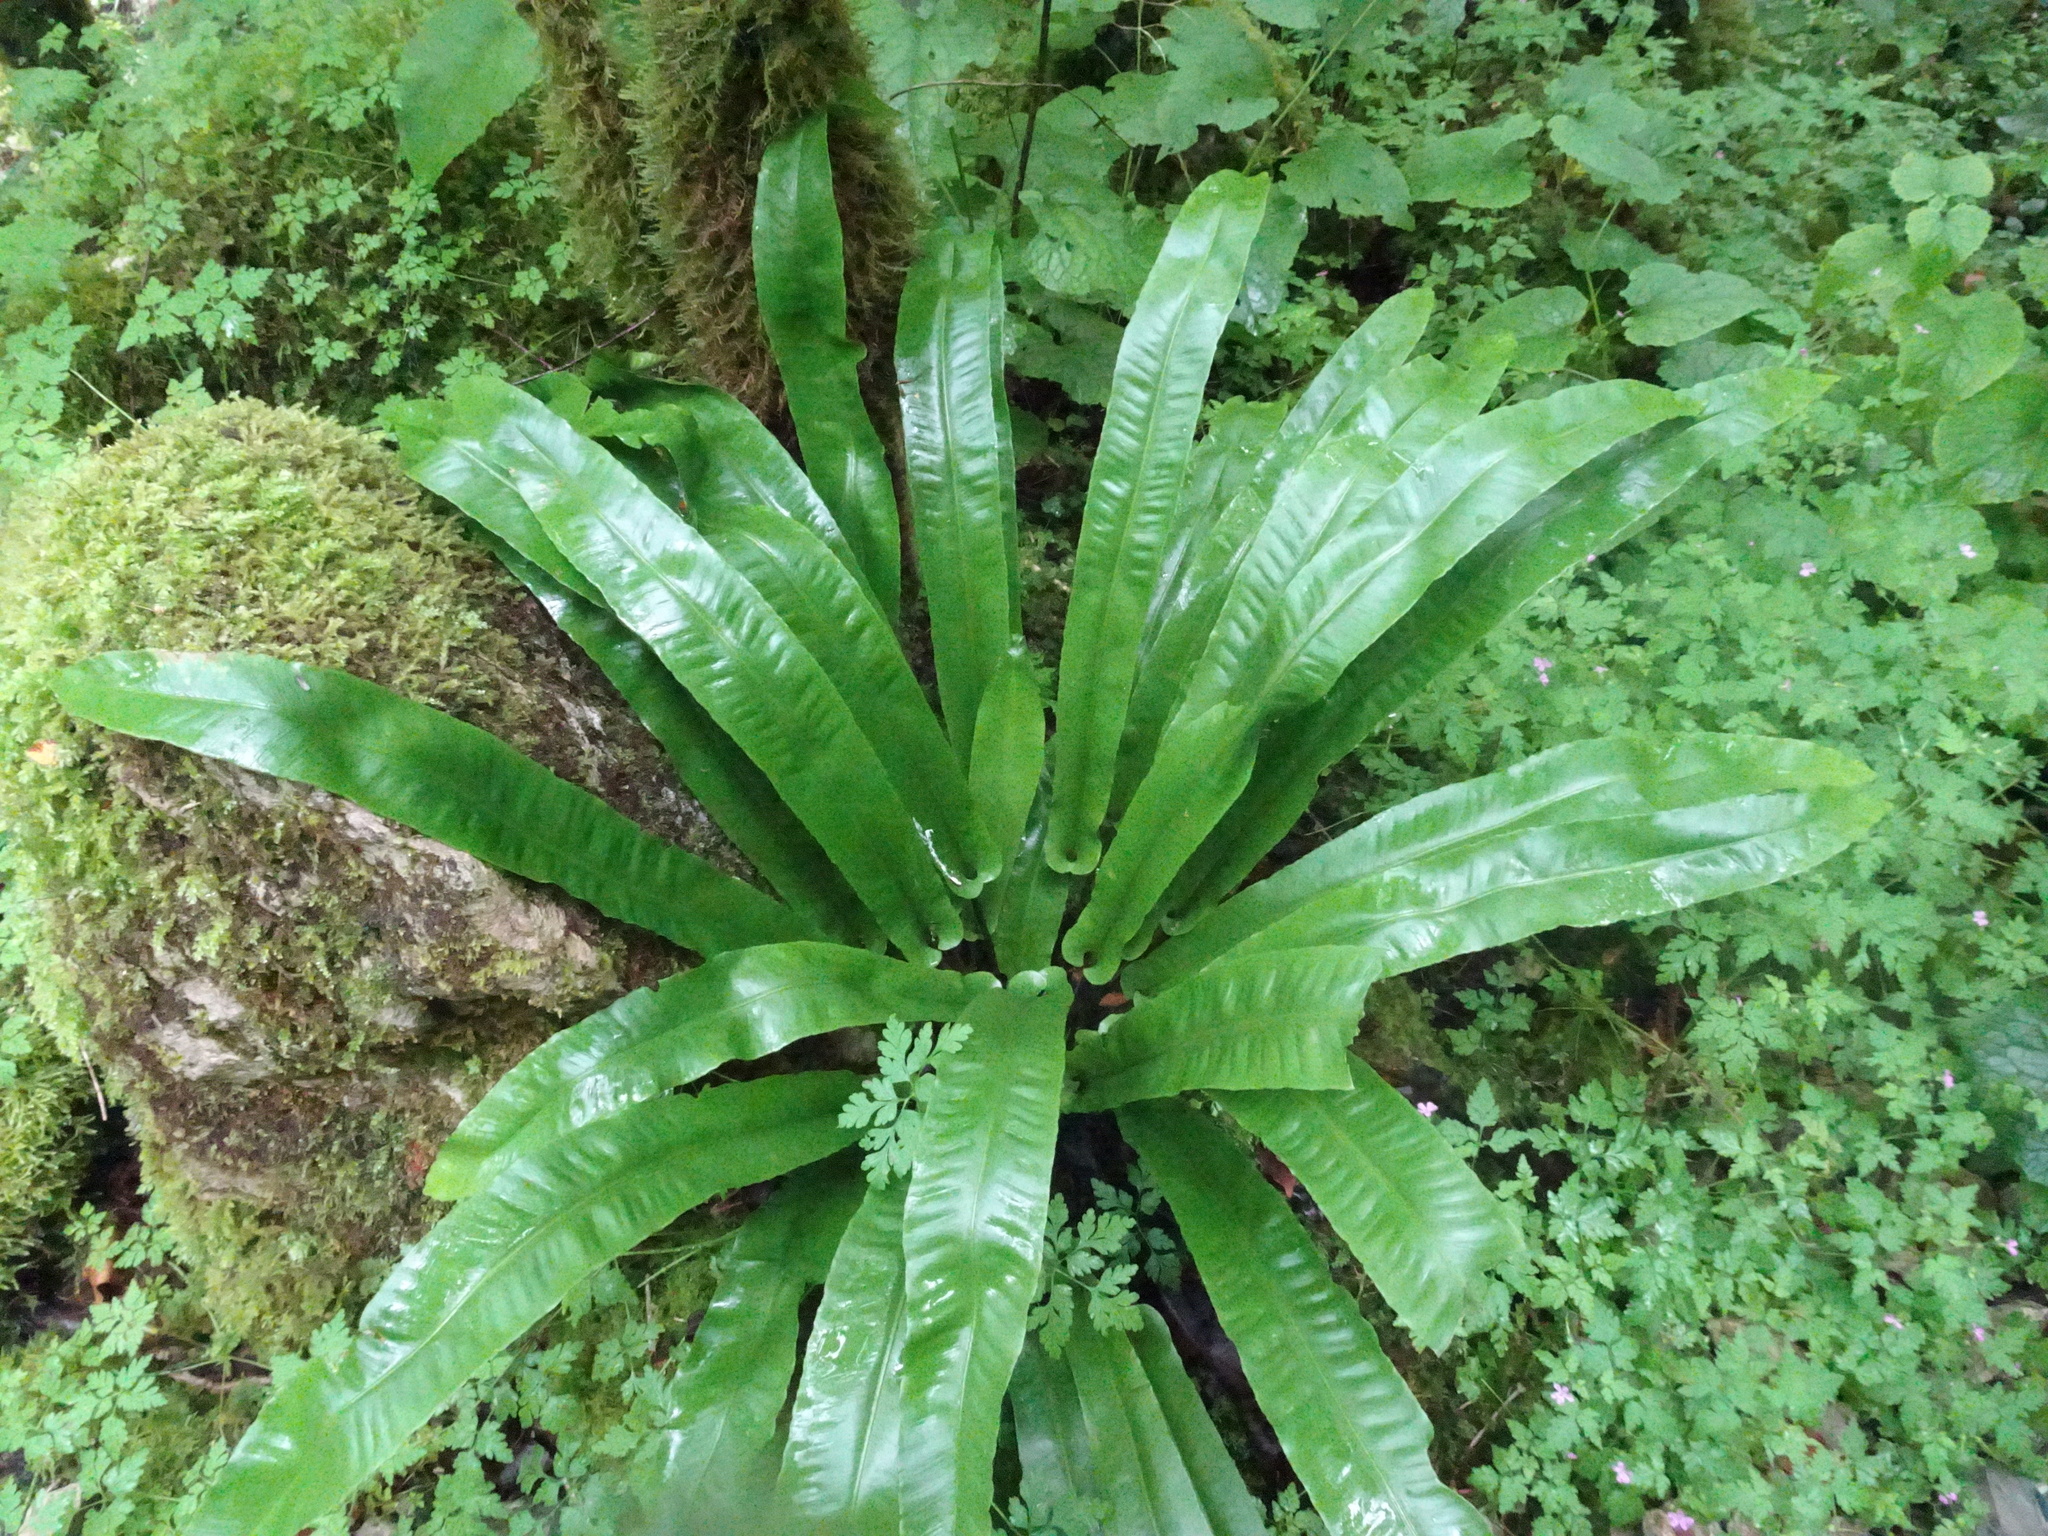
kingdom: Plantae
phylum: Tracheophyta
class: Polypodiopsida
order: Polypodiales
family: Aspleniaceae
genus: Asplenium
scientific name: Asplenium scolopendrium
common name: Hart's-tongue fern
